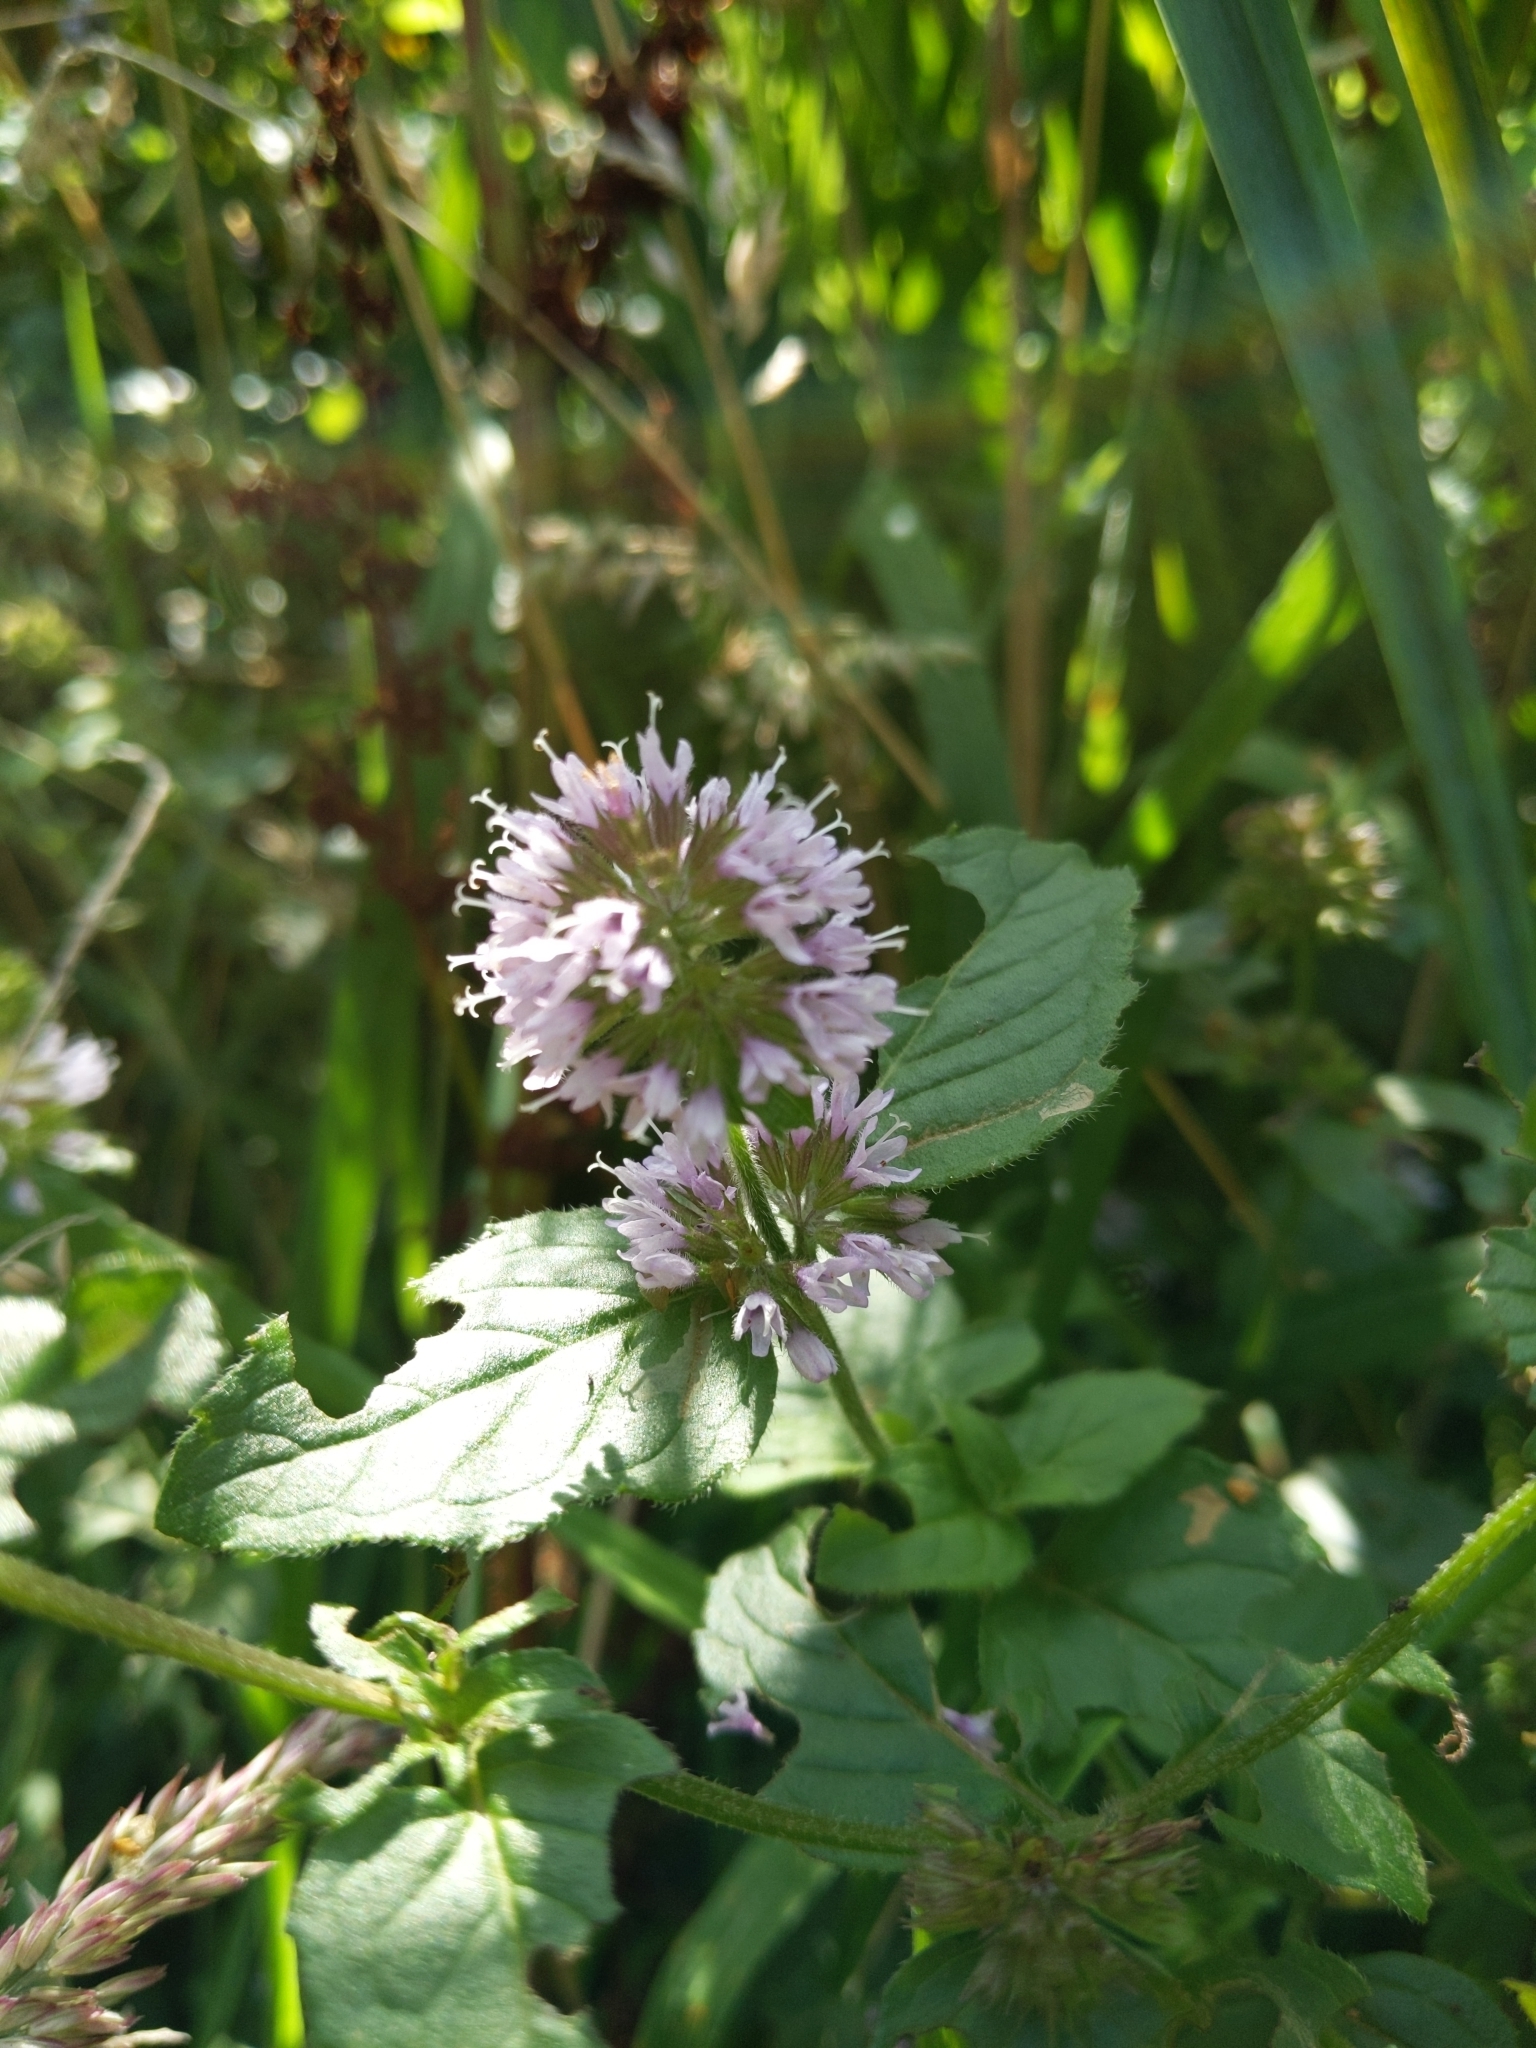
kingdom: Plantae
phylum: Tracheophyta
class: Magnoliopsida
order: Lamiales
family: Lamiaceae
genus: Mentha
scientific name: Mentha aquatica
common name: Water mint
